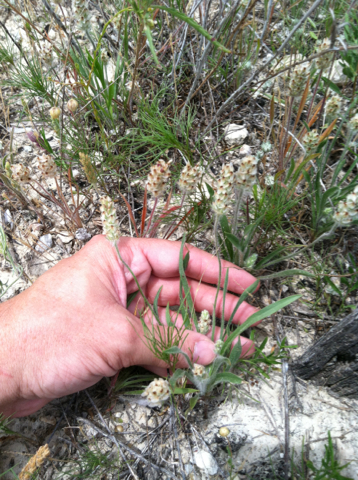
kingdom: Plantae
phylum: Tracheophyta
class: Magnoliopsida
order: Lamiales
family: Plantaginaceae
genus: Plantago
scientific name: Plantago helleri
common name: Heller's plantain
